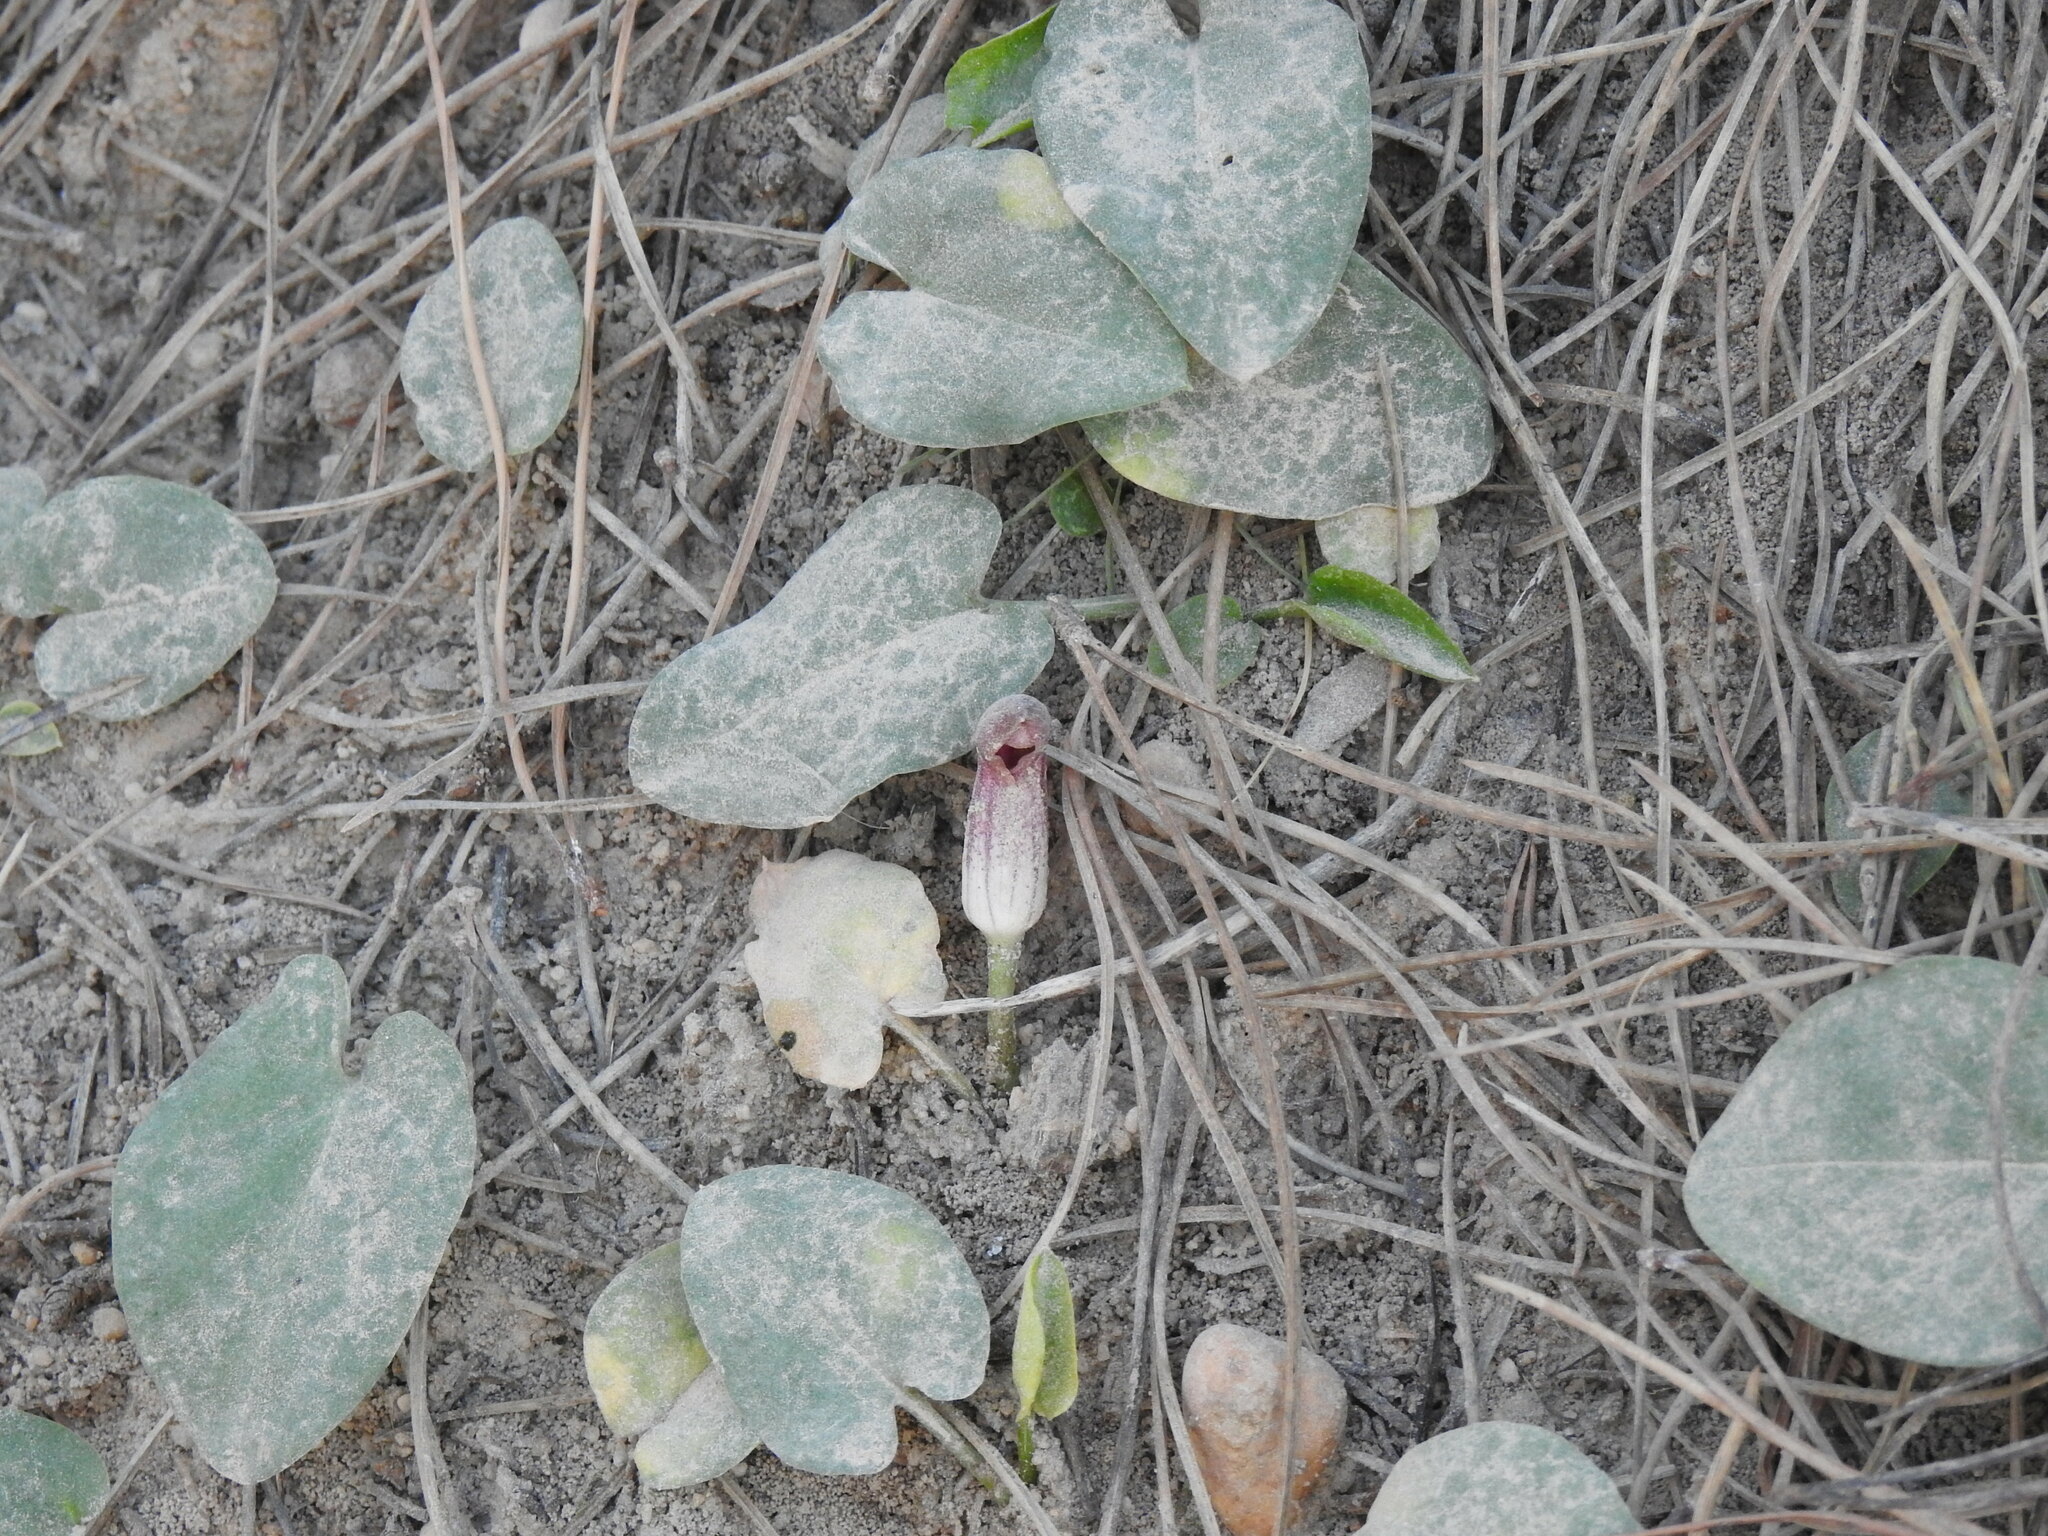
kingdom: Plantae
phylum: Tracheophyta
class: Liliopsida
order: Alismatales
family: Araceae
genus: Arisarum
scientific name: Arisarum simorrhinum
